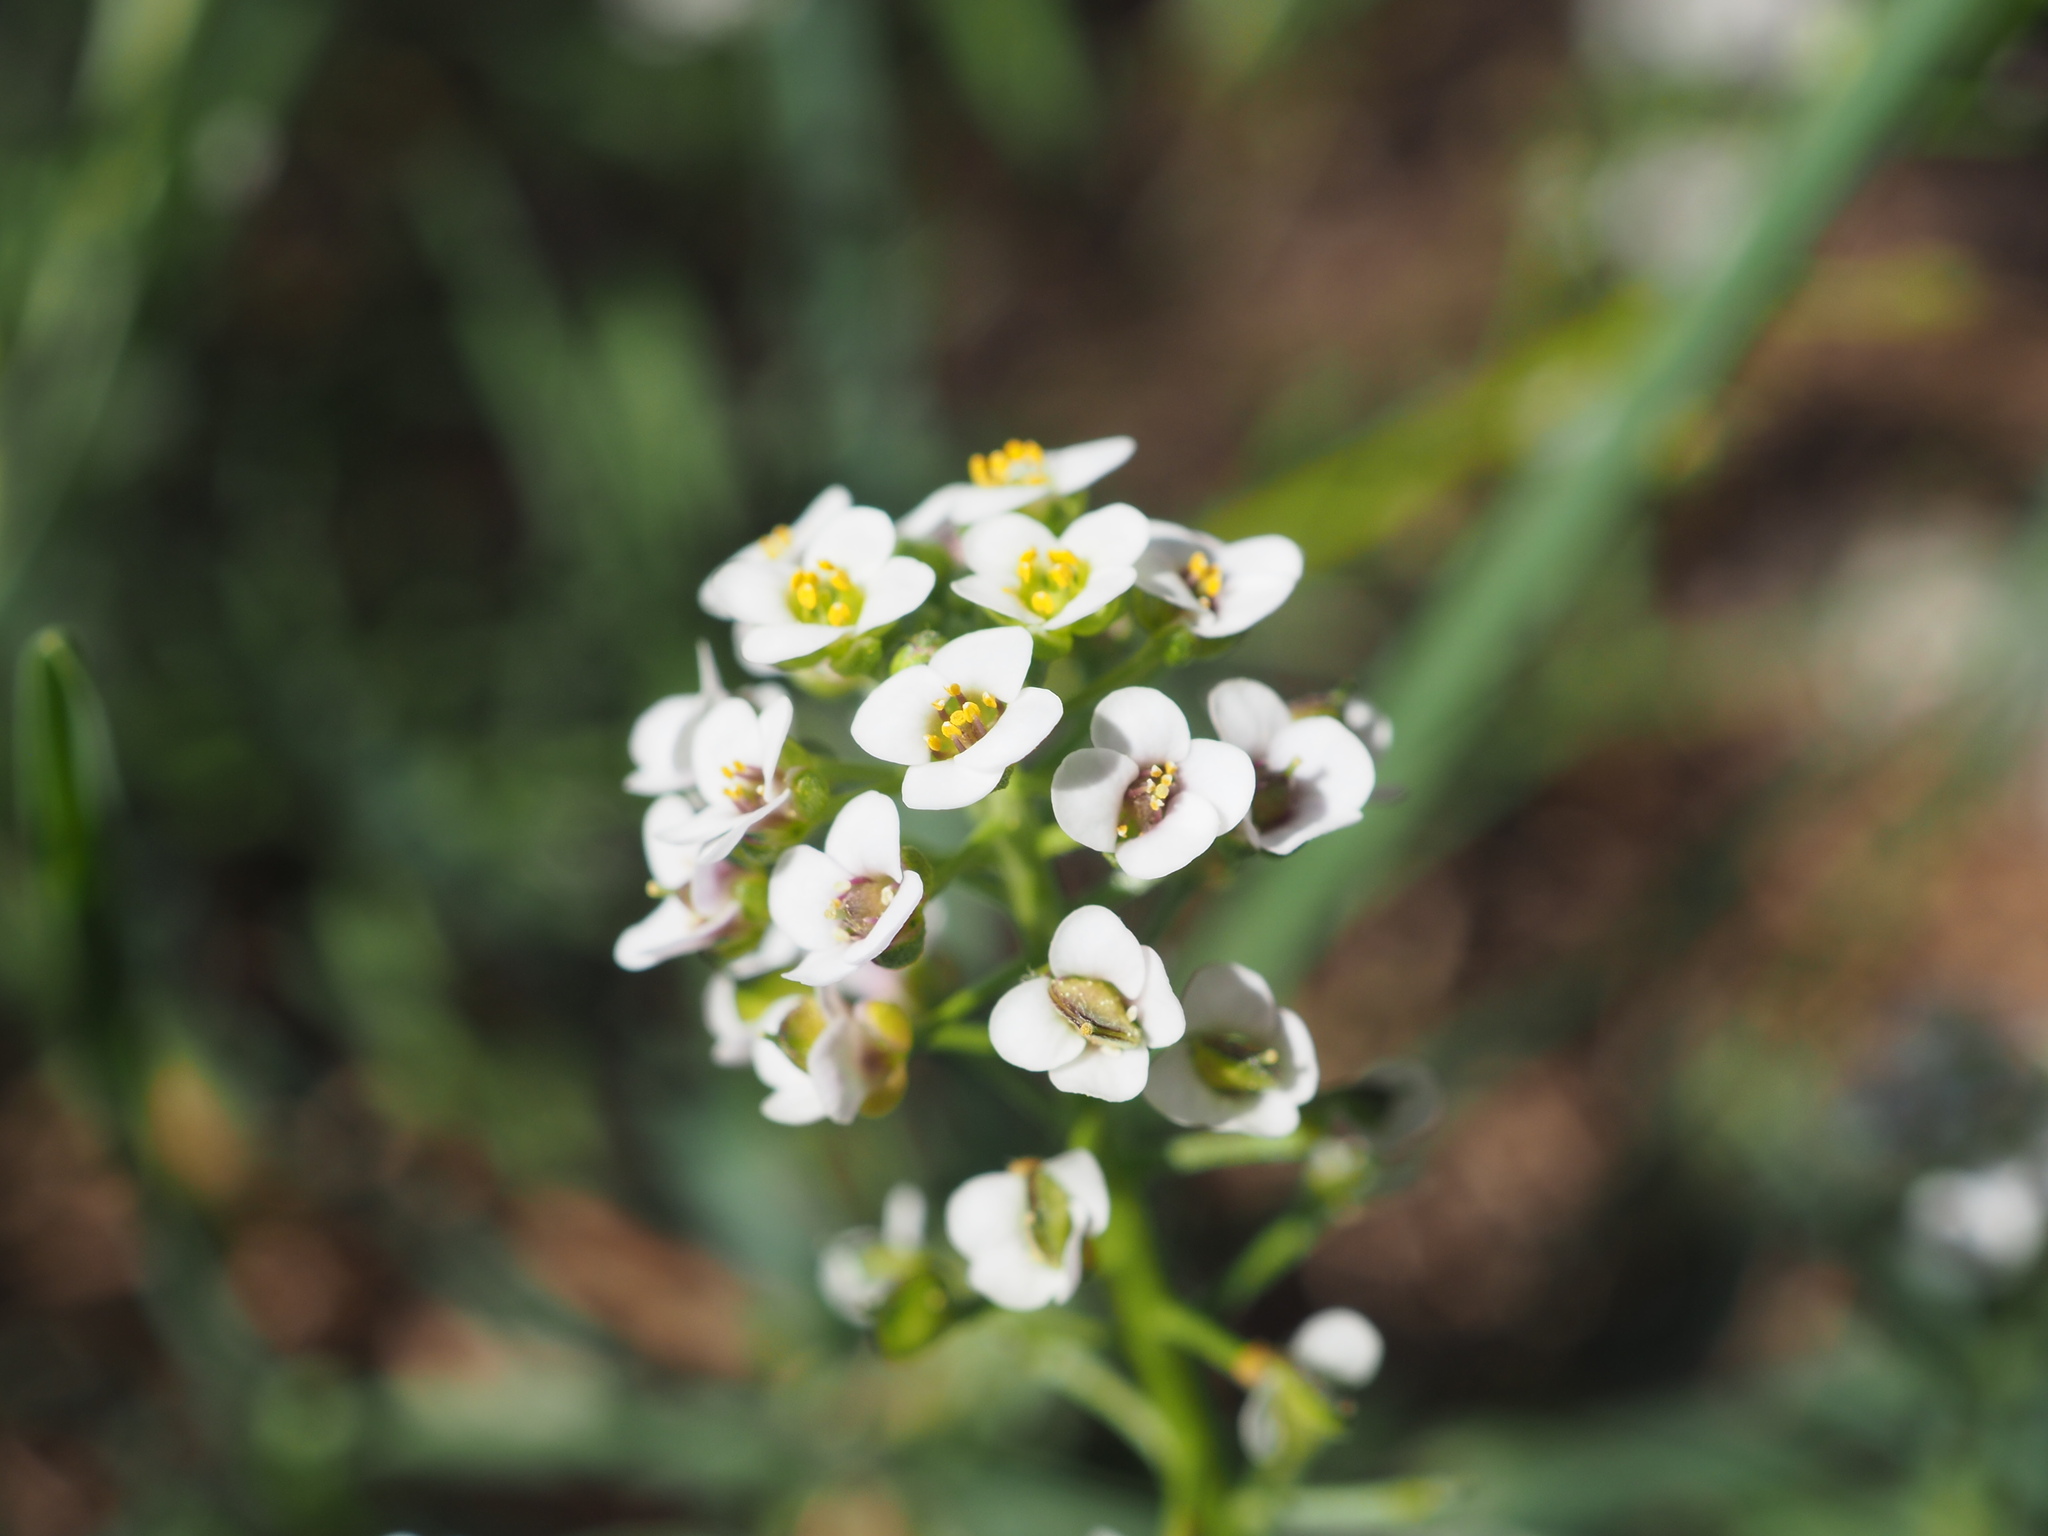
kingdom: Plantae
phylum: Tracheophyta
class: Magnoliopsida
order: Brassicales
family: Brassicaceae
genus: Lobularia
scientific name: Lobularia maritima
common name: Sweet alison
